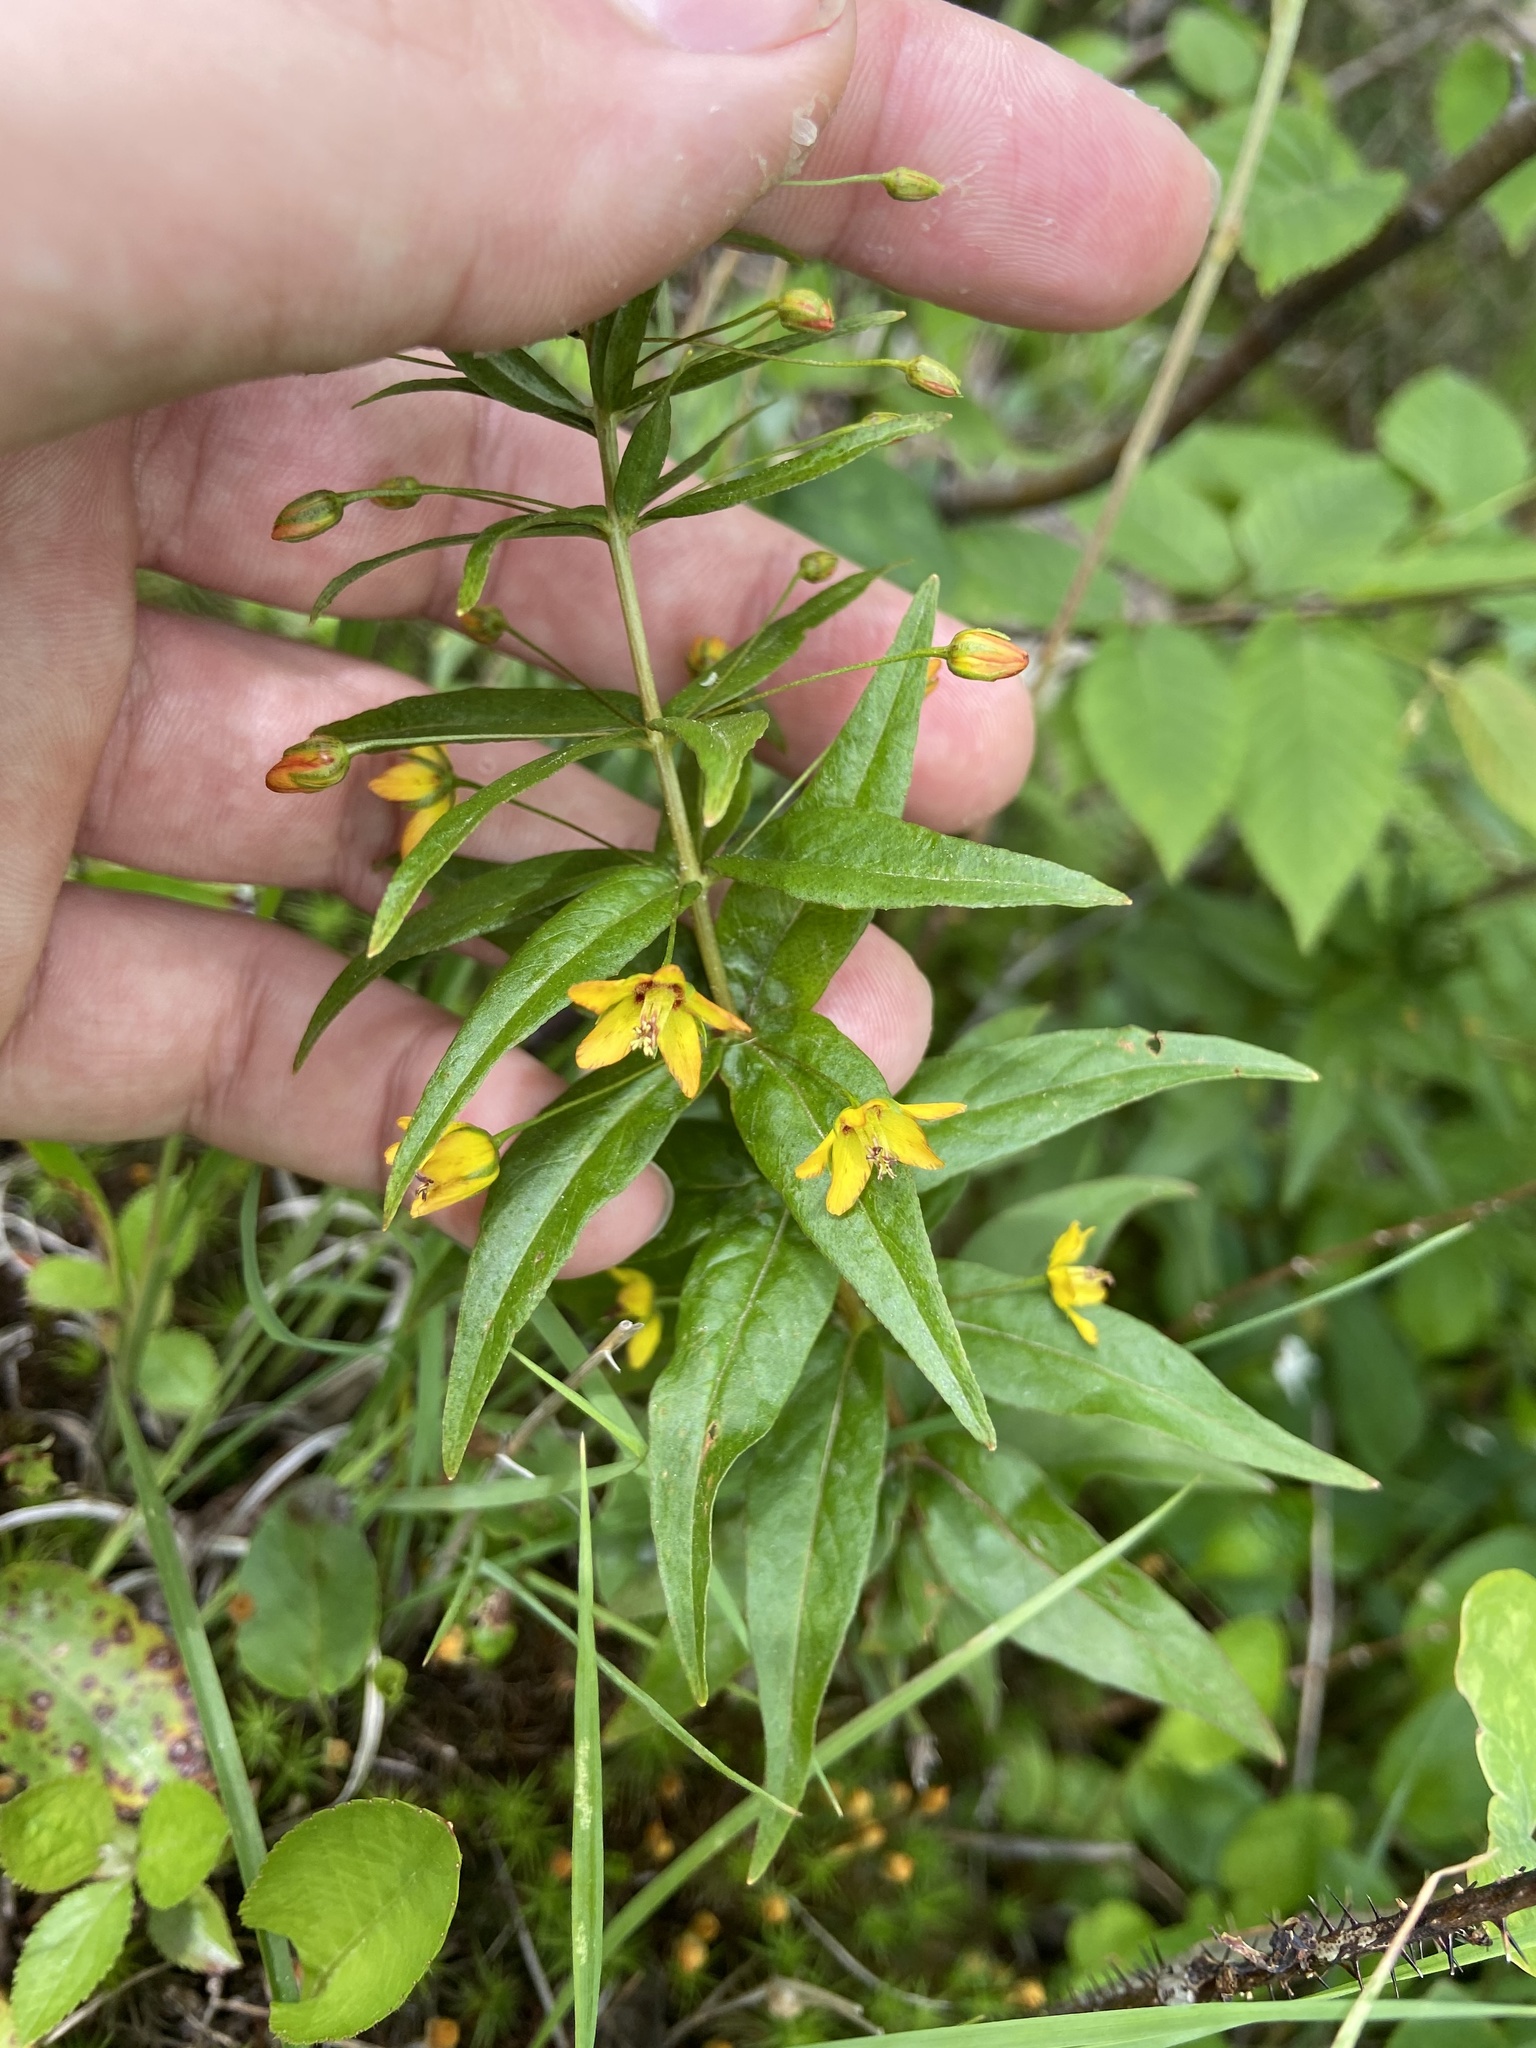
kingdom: Plantae
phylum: Tracheophyta
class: Magnoliopsida
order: Ericales
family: Primulaceae
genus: Lysimachia
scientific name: Lysimachia quadrifolia
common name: Whorled loosestrife
